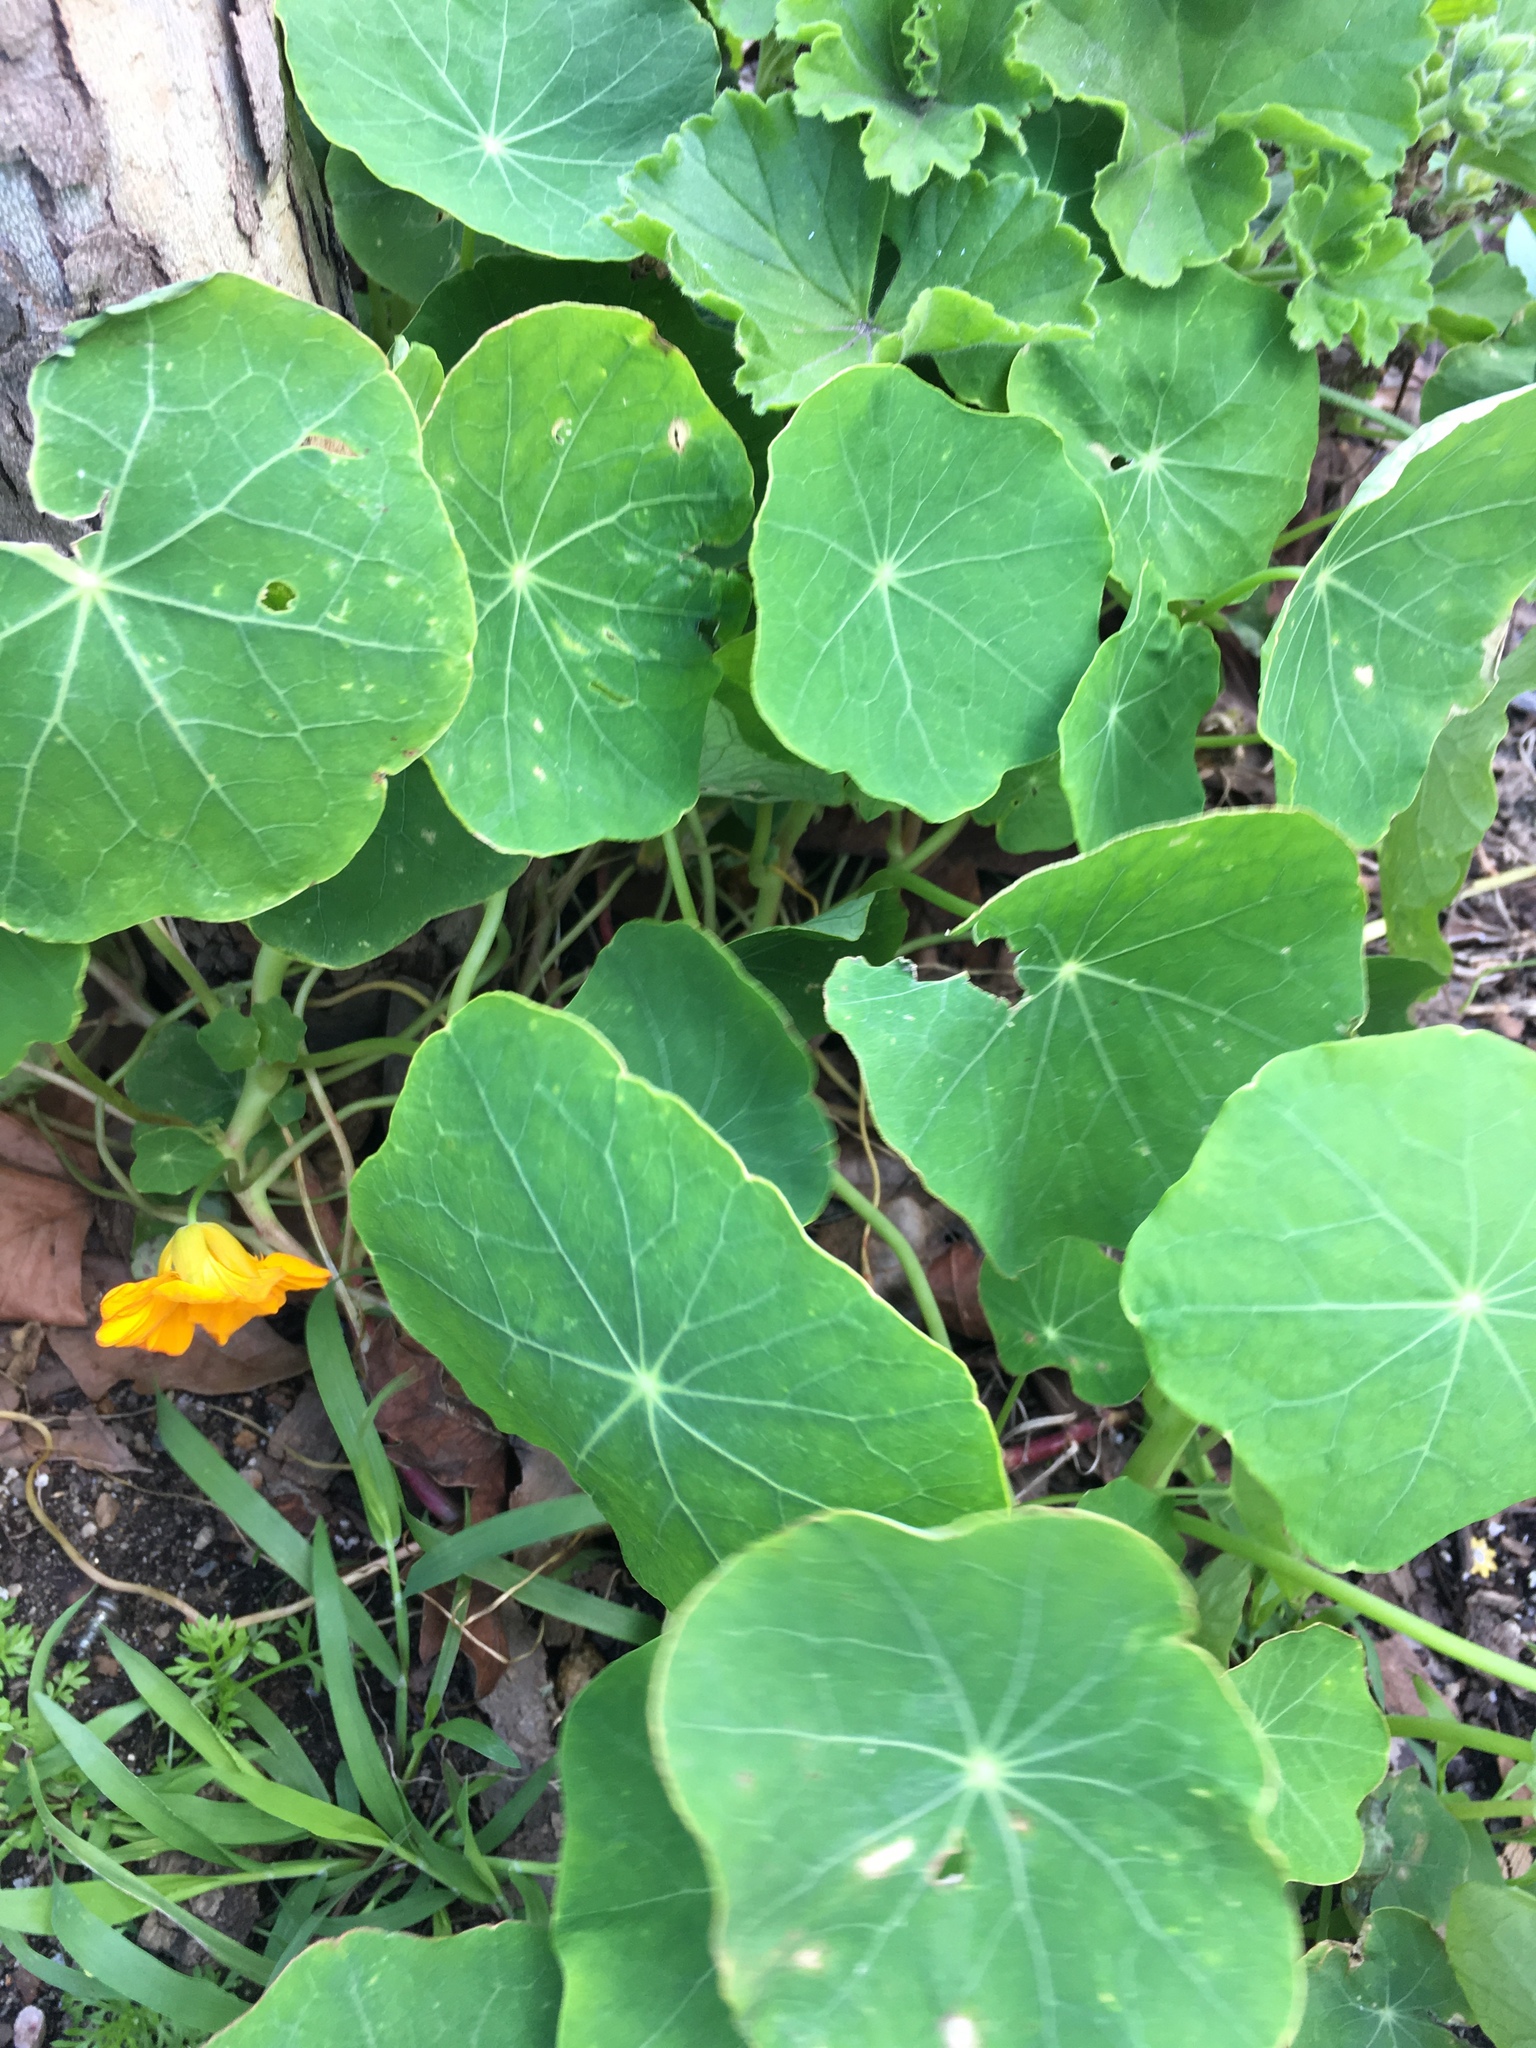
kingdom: Plantae
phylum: Tracheophyta
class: Magnoliopsida
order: Brassicales
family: Tropaeolaceae
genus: Tropaeolum
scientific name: Tropaeolum majus
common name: Nasturtium
